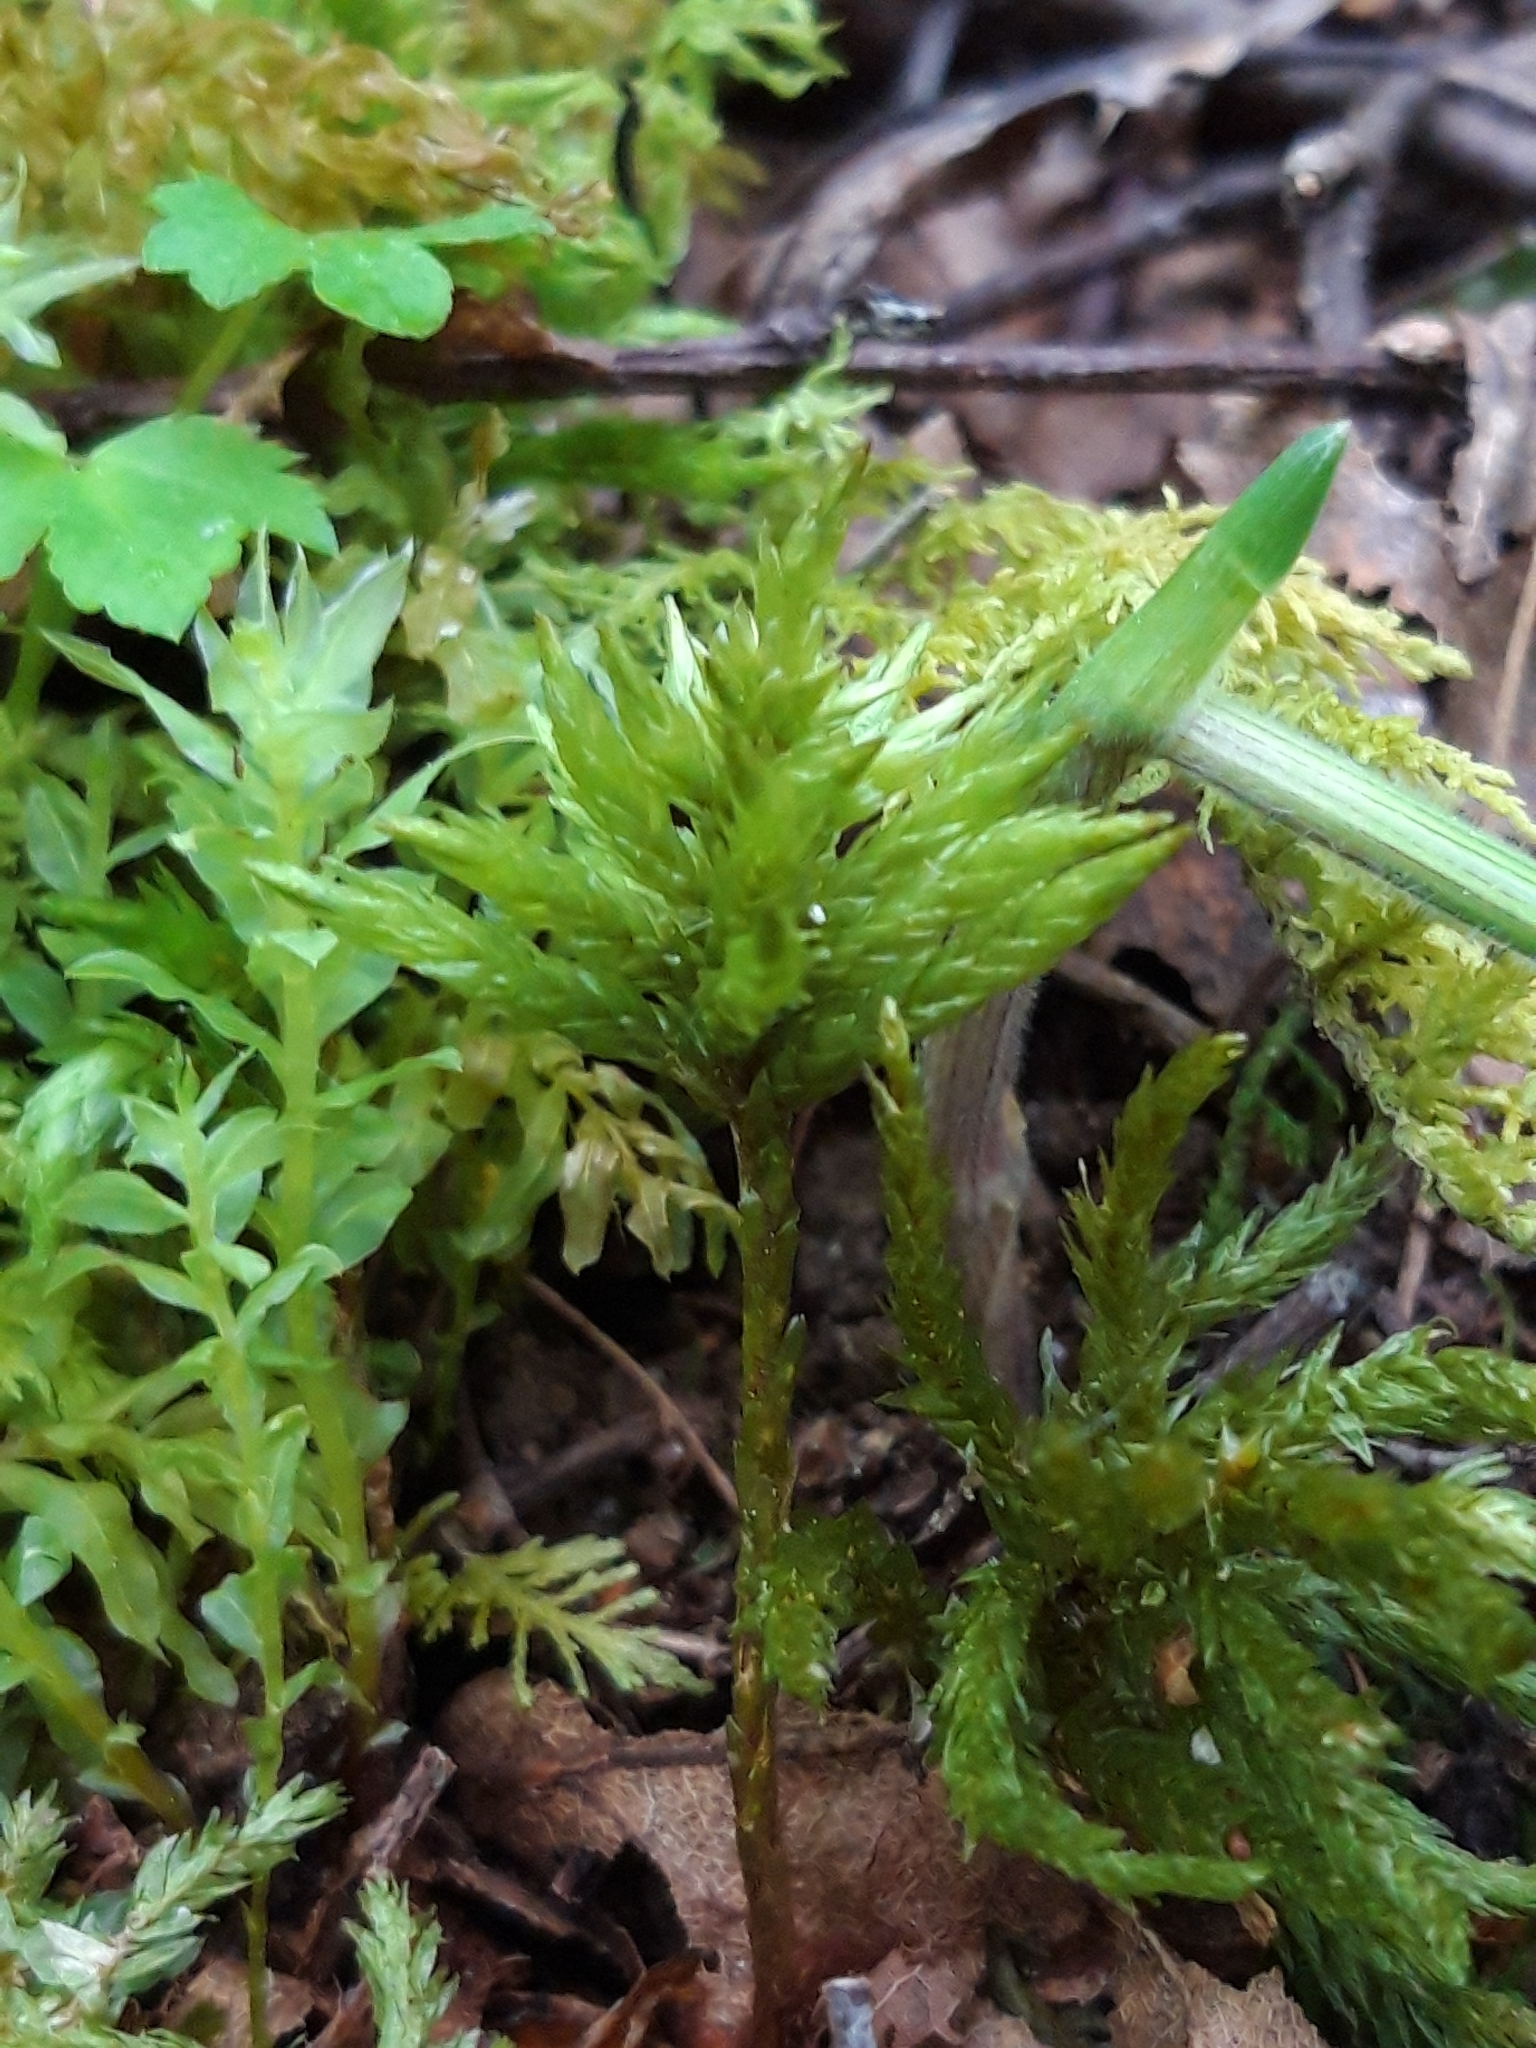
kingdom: Plantae
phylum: Bryophyta
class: Bryopsida
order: Hypnales
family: Climaciaceae
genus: Climacium
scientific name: Climacium dendroides
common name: Northern tree moss
